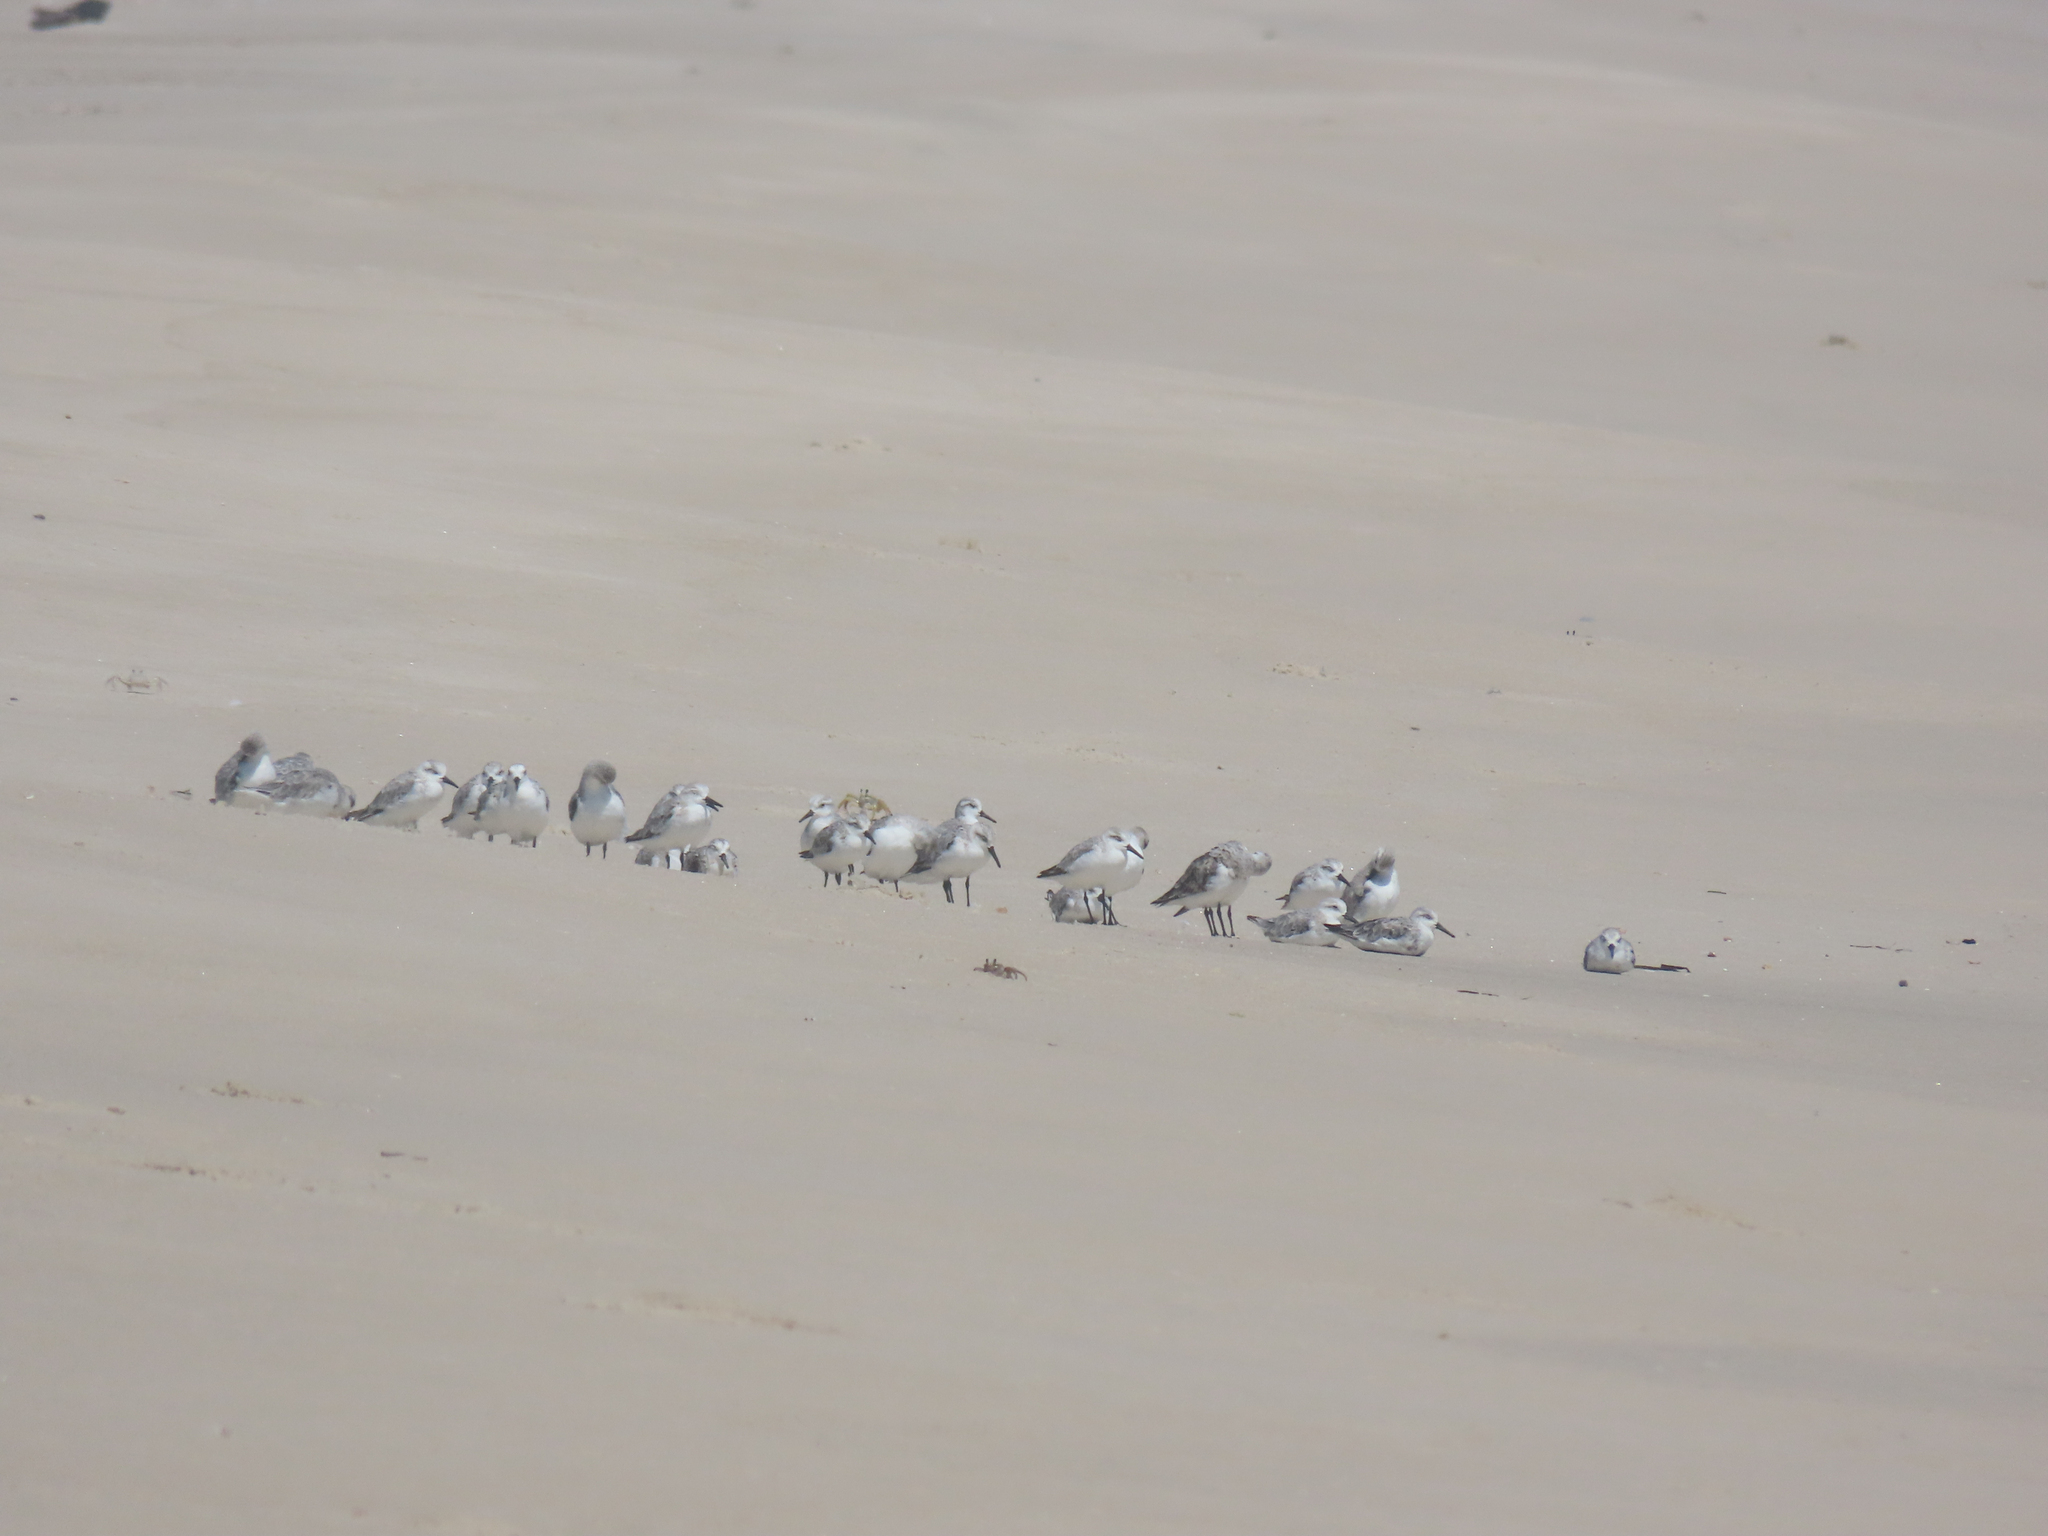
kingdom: Animalia
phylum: Chordata
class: Aves
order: Charadriiformes
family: Scolopacidae
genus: Calidris
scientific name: Calidris alba
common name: Sanderling
